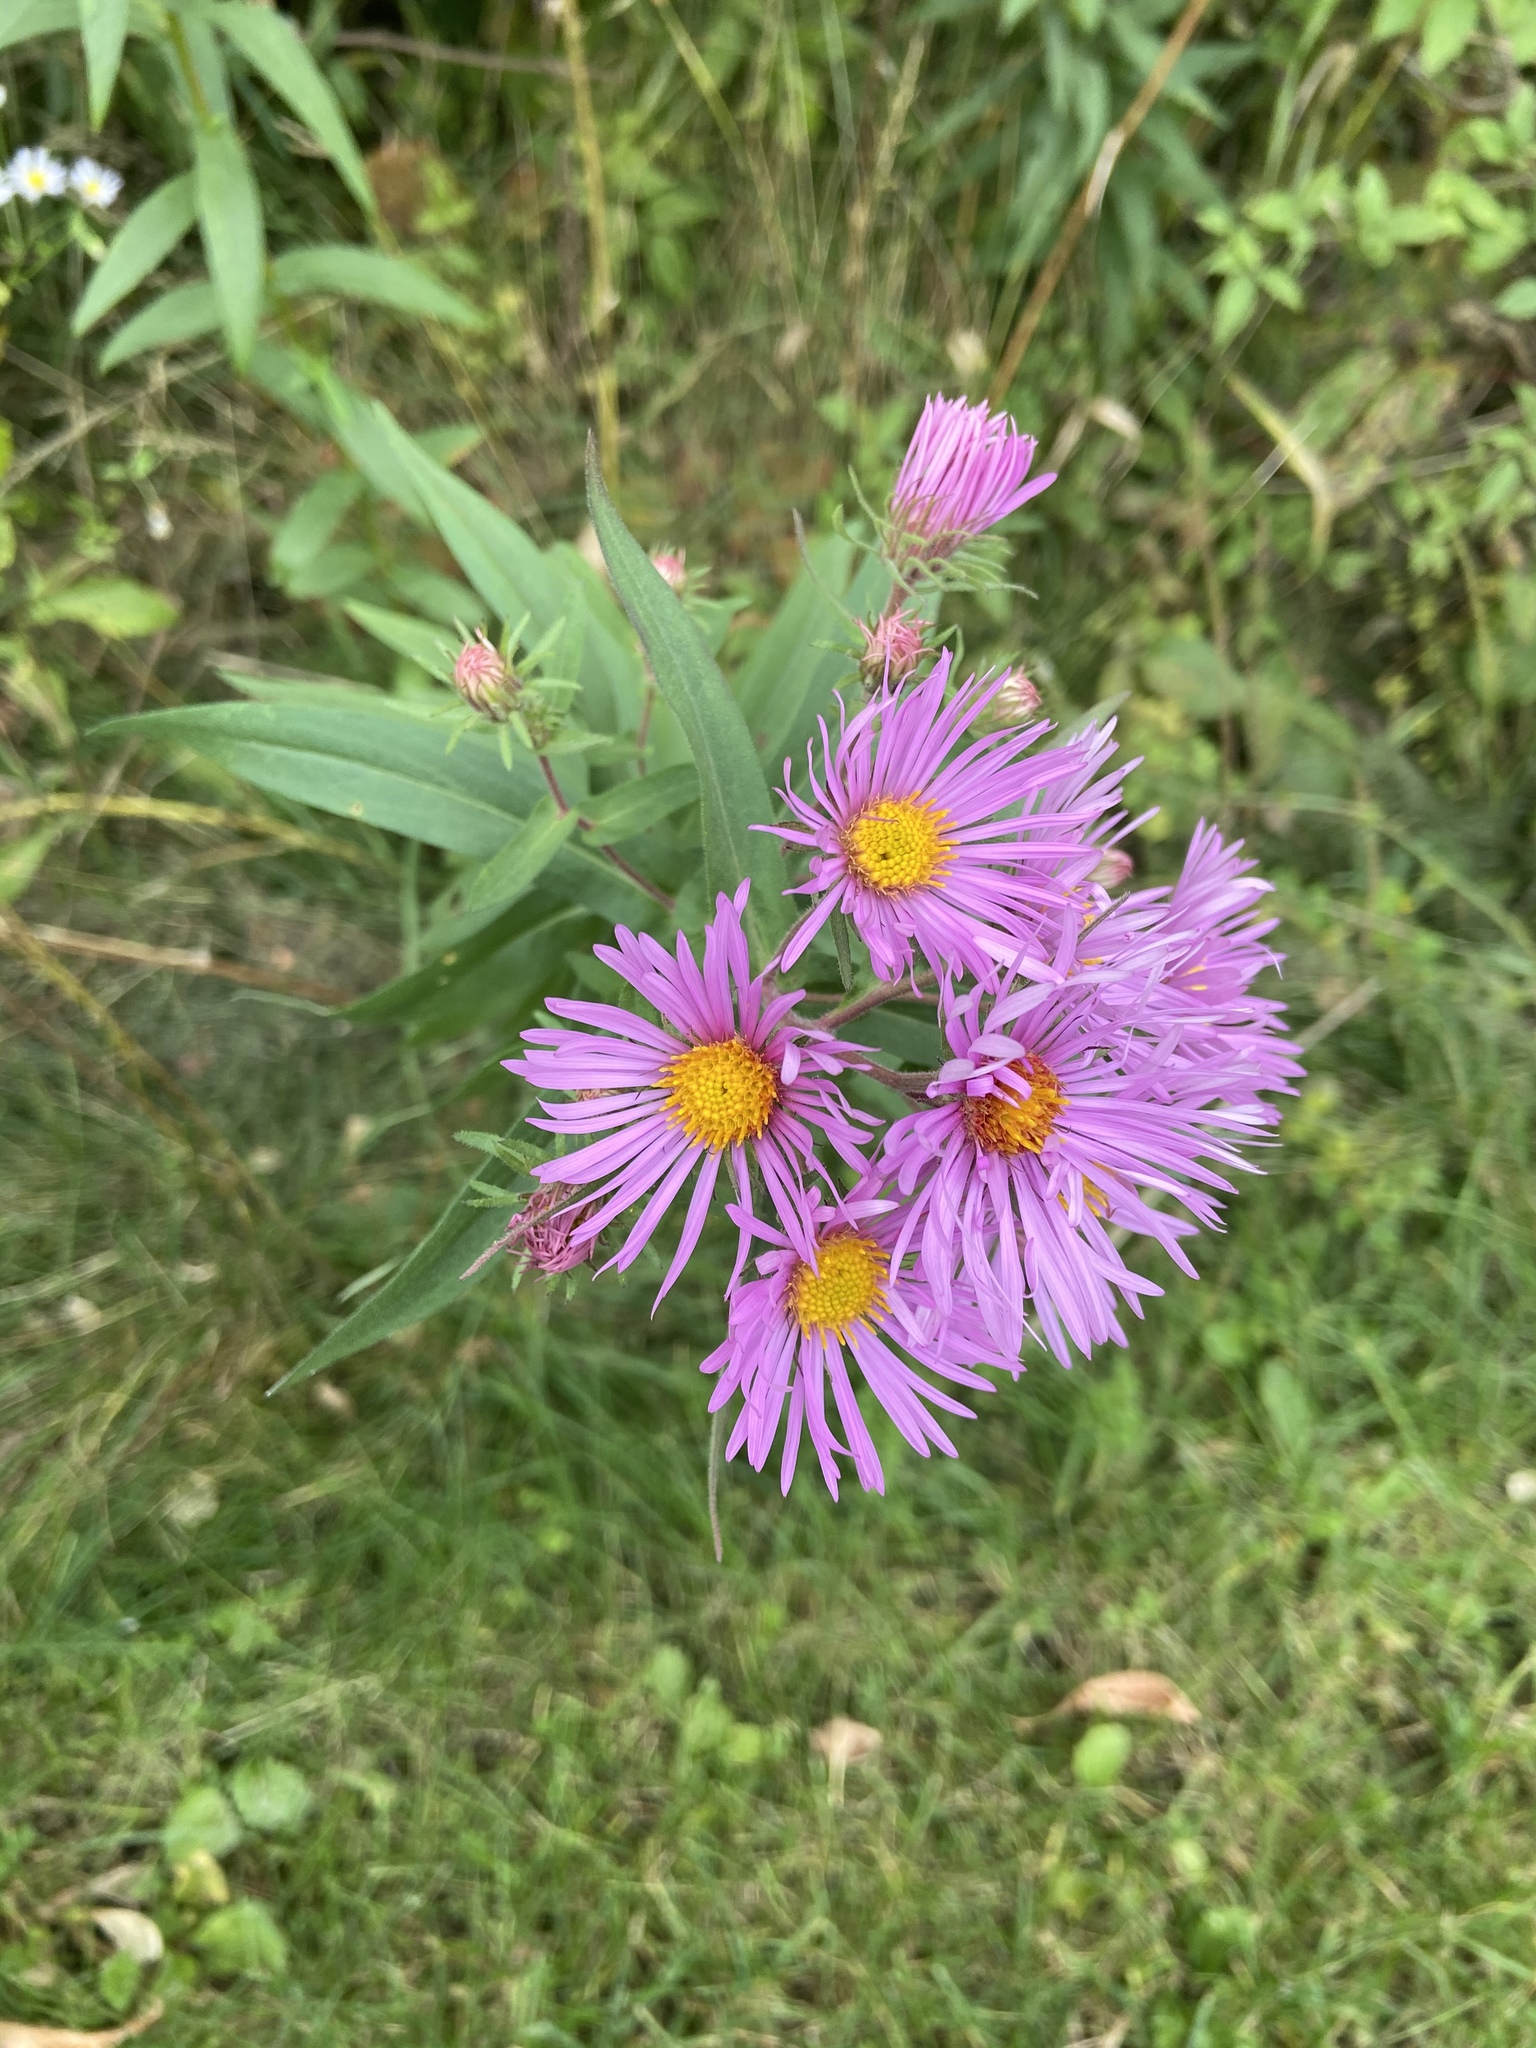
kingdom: Plantae
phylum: Tracheophyta
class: Magnoliopsida
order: Asterales
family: Asteraceae
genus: Symphyotrichum
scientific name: Symphyotrichum novae-angliae
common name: Michaelmas daisy
